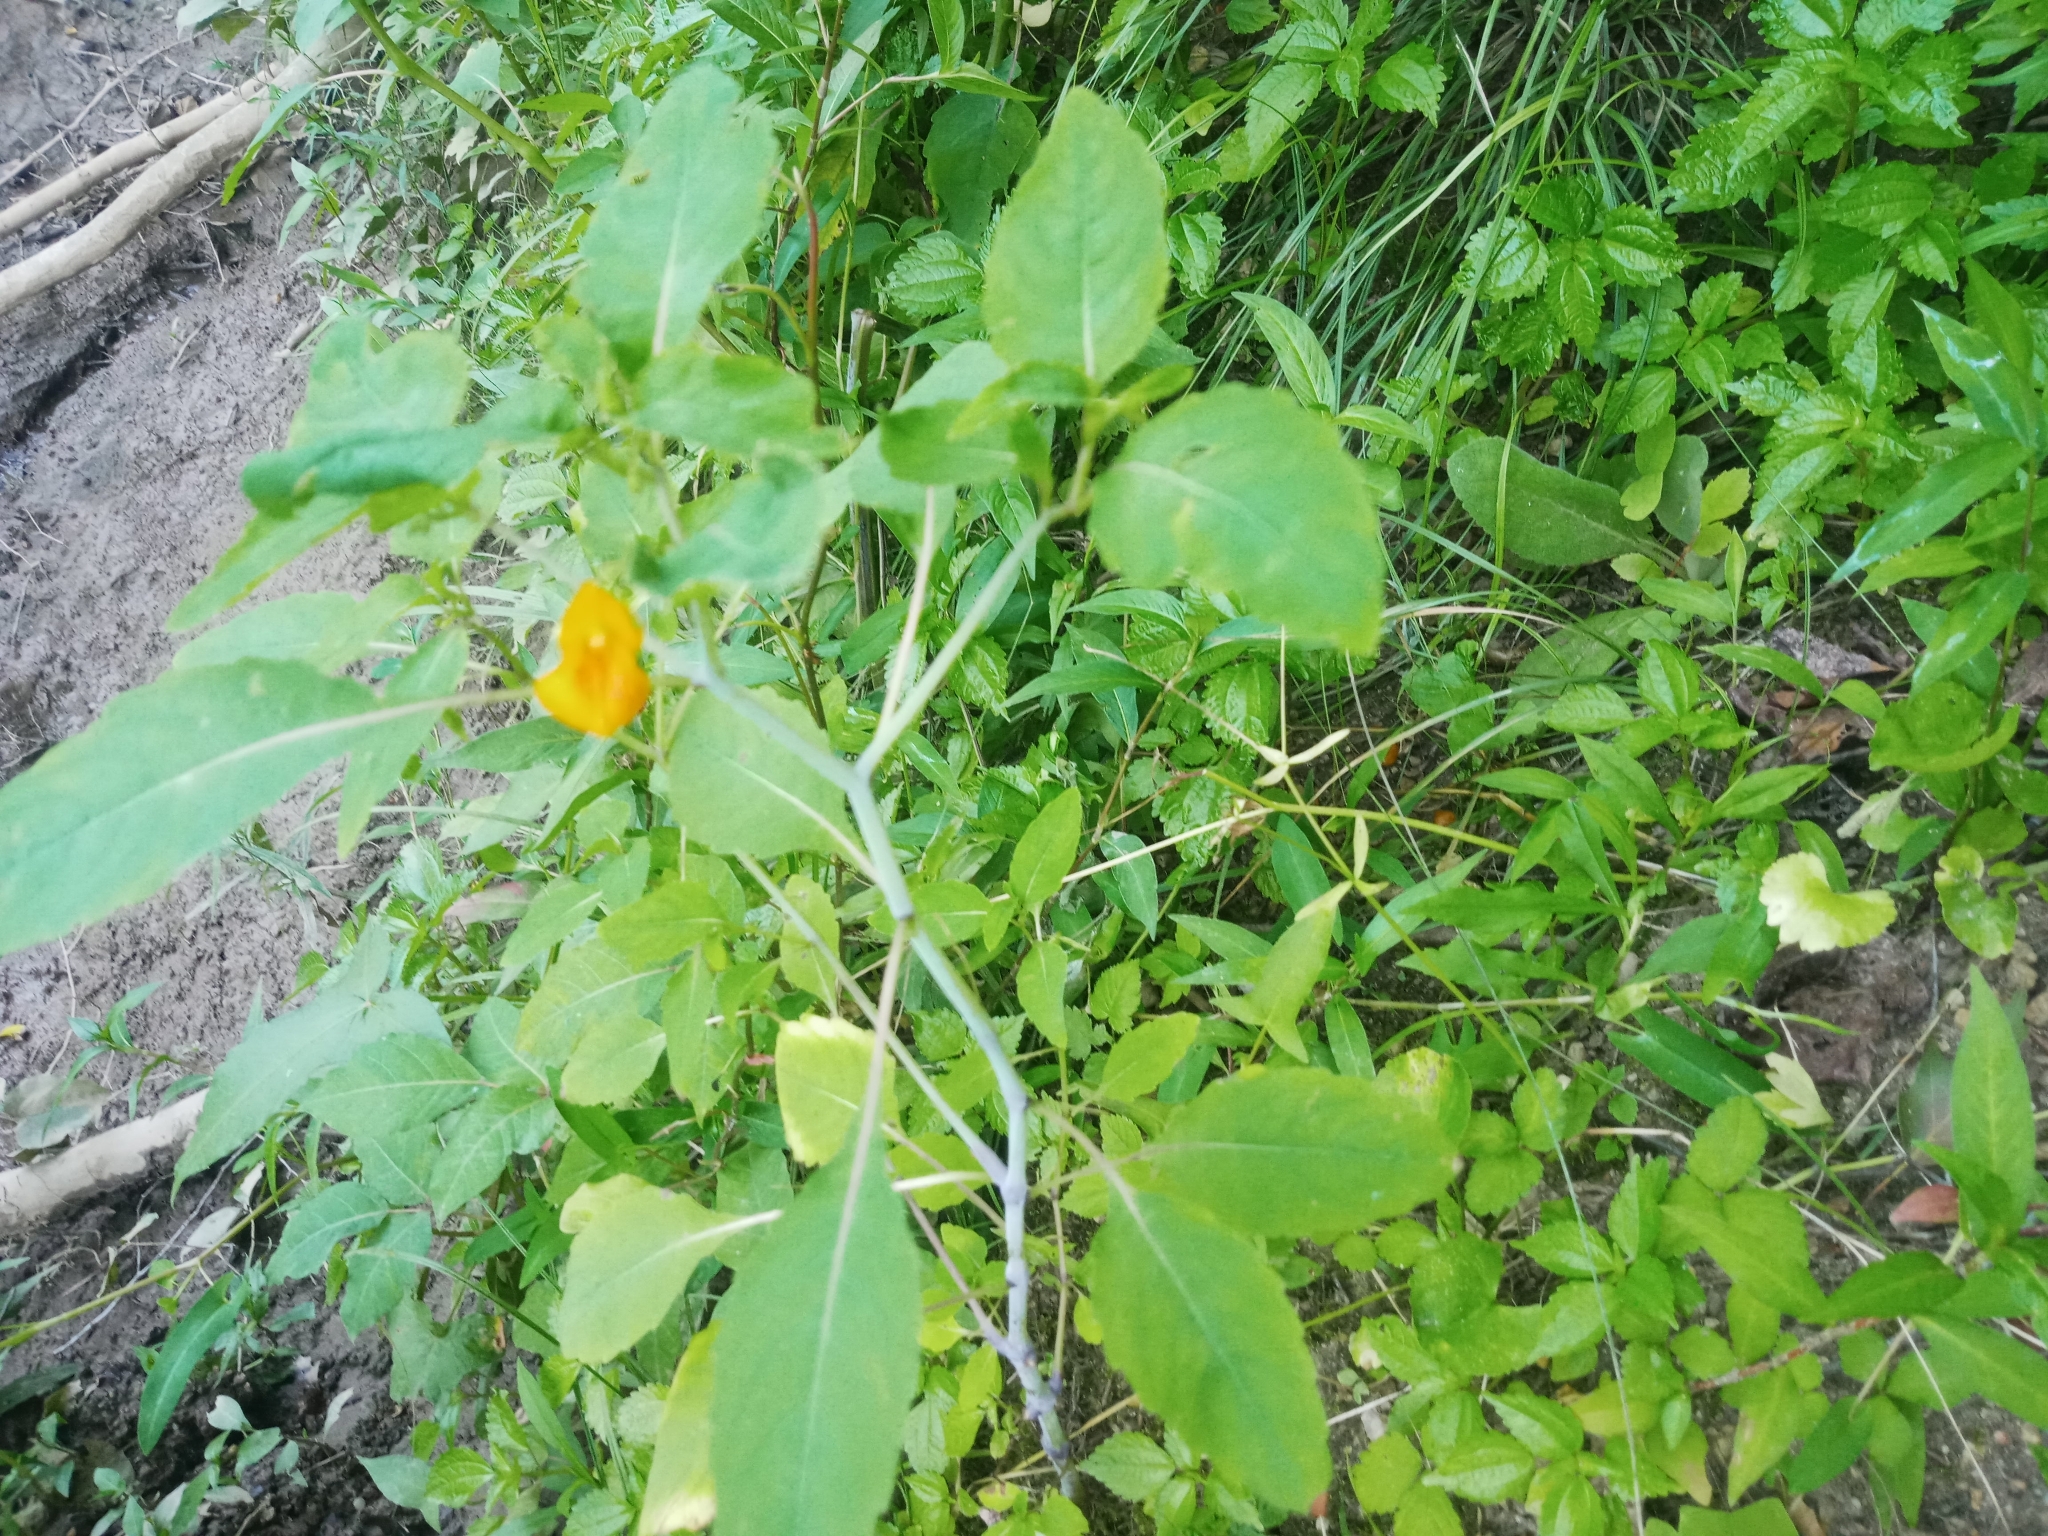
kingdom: Plantae
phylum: Tracheophyta
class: Magnoliopsida
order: Ericales
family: Balsaminaceae
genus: Impatiens
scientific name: Impatiens capensis
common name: Orange balsam
